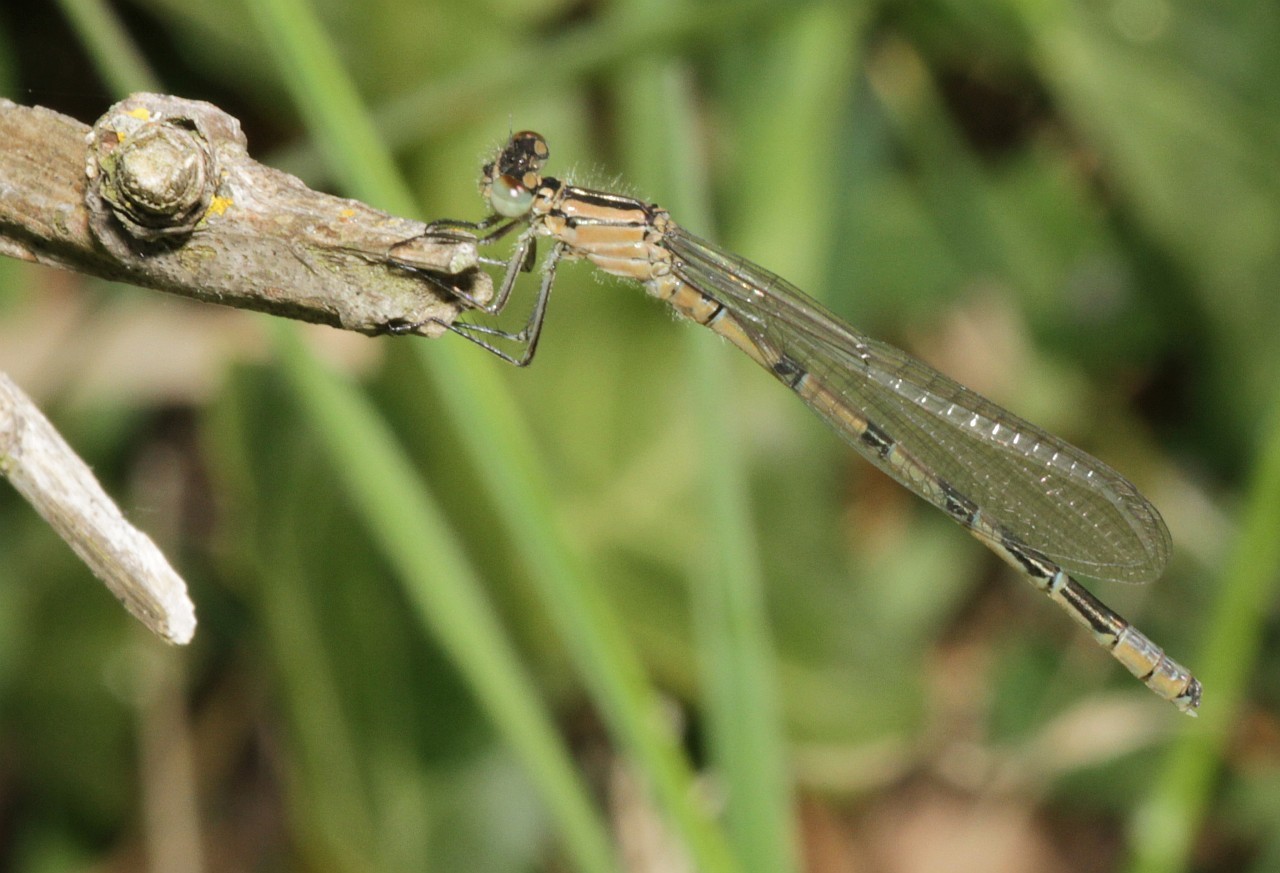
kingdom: Animalia
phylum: Arthropoda
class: Insecta
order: Odonata
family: Coenagrionidae
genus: Enallagma
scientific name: Enallagma cyathigerum
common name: Common blue damselfly
